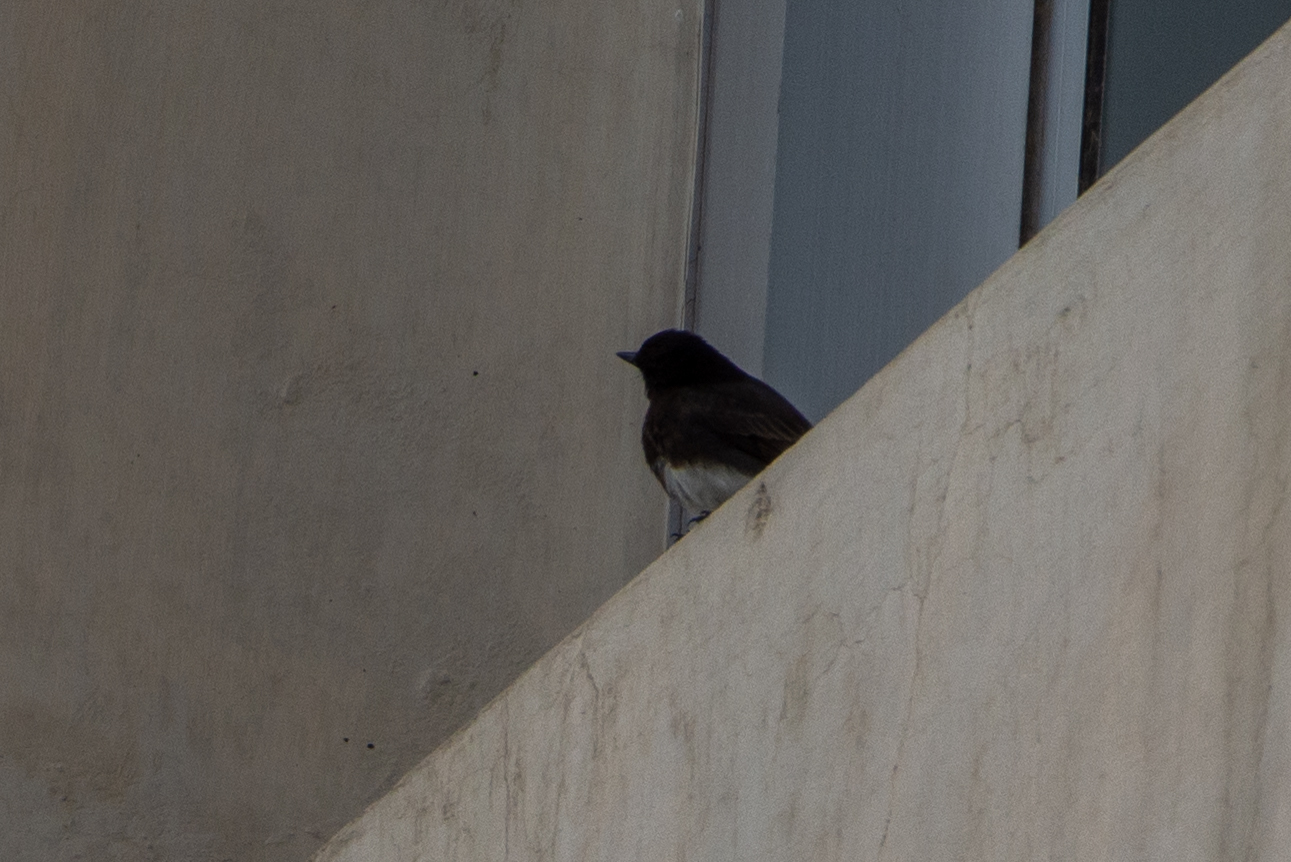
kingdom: Animalia
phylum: Chordata
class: Aves
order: Passeriformes
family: Tyrannidae
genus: Sayornis
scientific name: Sayornis nigricans
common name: Black phoebe
